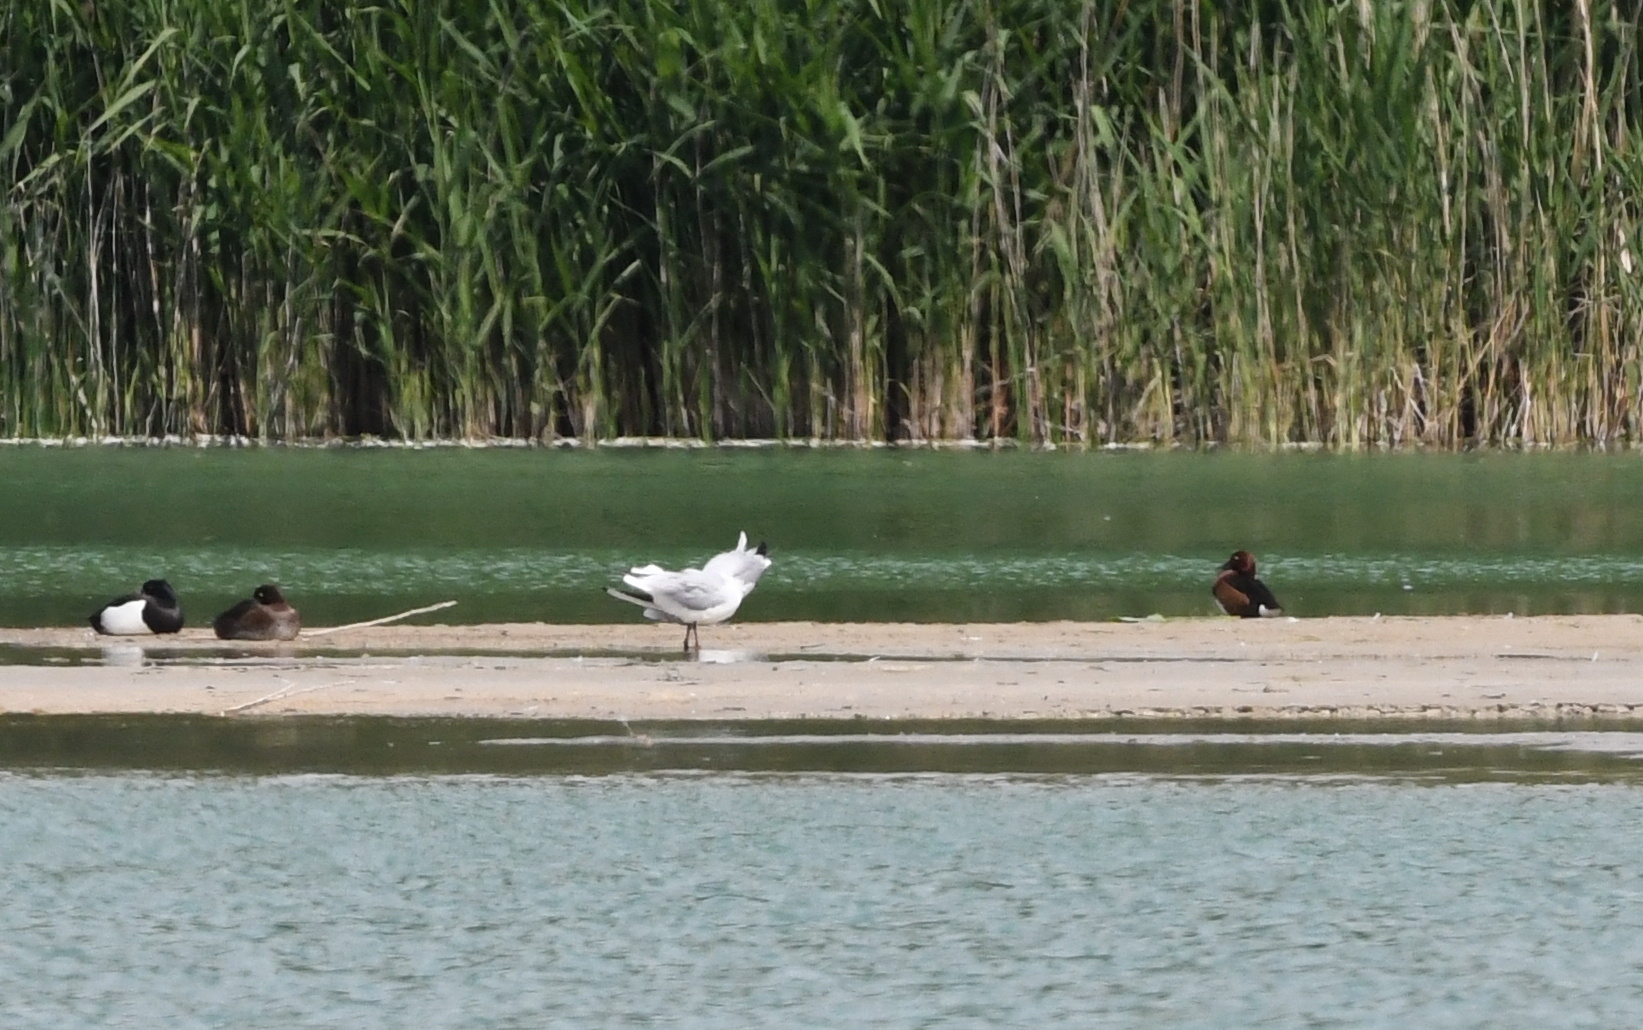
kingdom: Animalia
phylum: Chordata
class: Aves
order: Anseriformes
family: Anatidae
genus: Aythya
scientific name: Aythya nyroca
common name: Ferruginous duck
